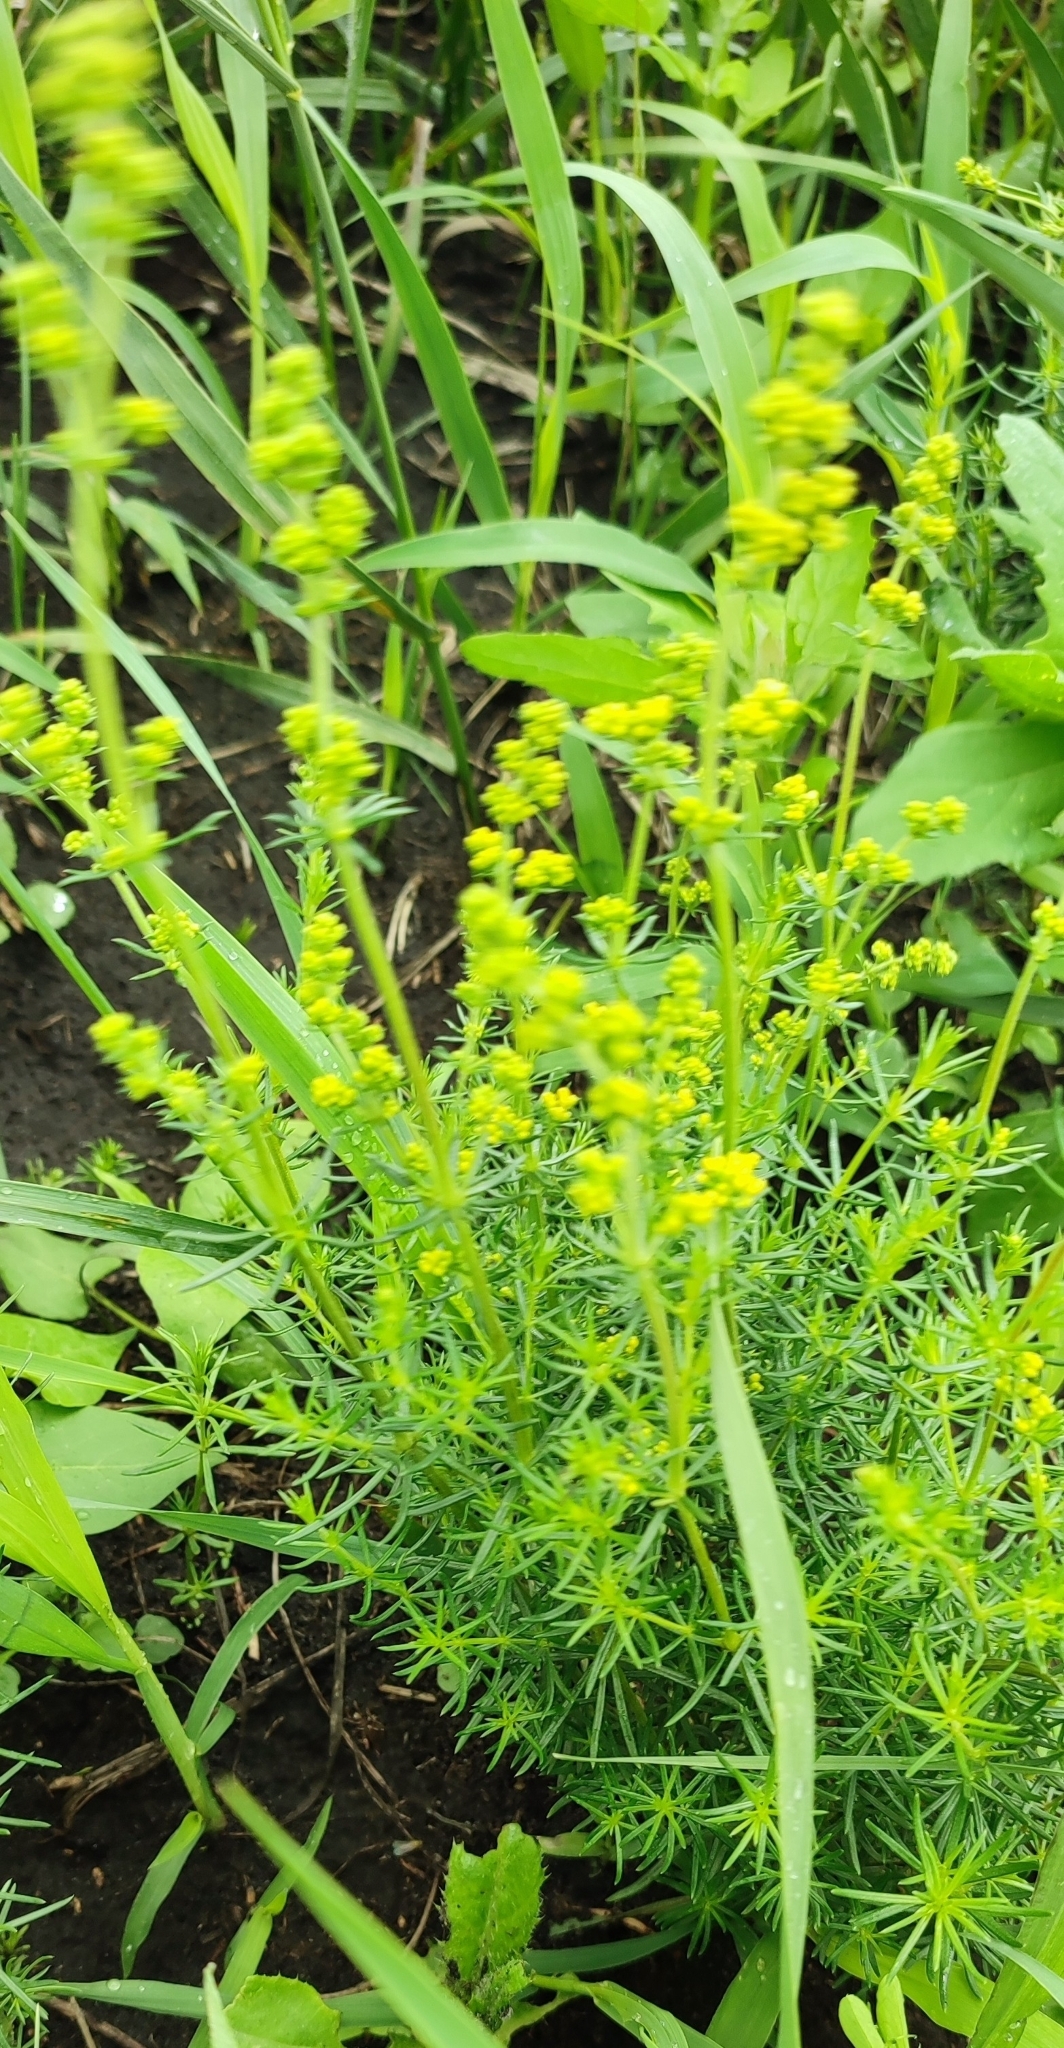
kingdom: Plantae
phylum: Tracheophyta
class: Magnoliopsida
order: Gentianales
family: Rubiaceae
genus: Galium
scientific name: Galium verum
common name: Lady's bedstraw
